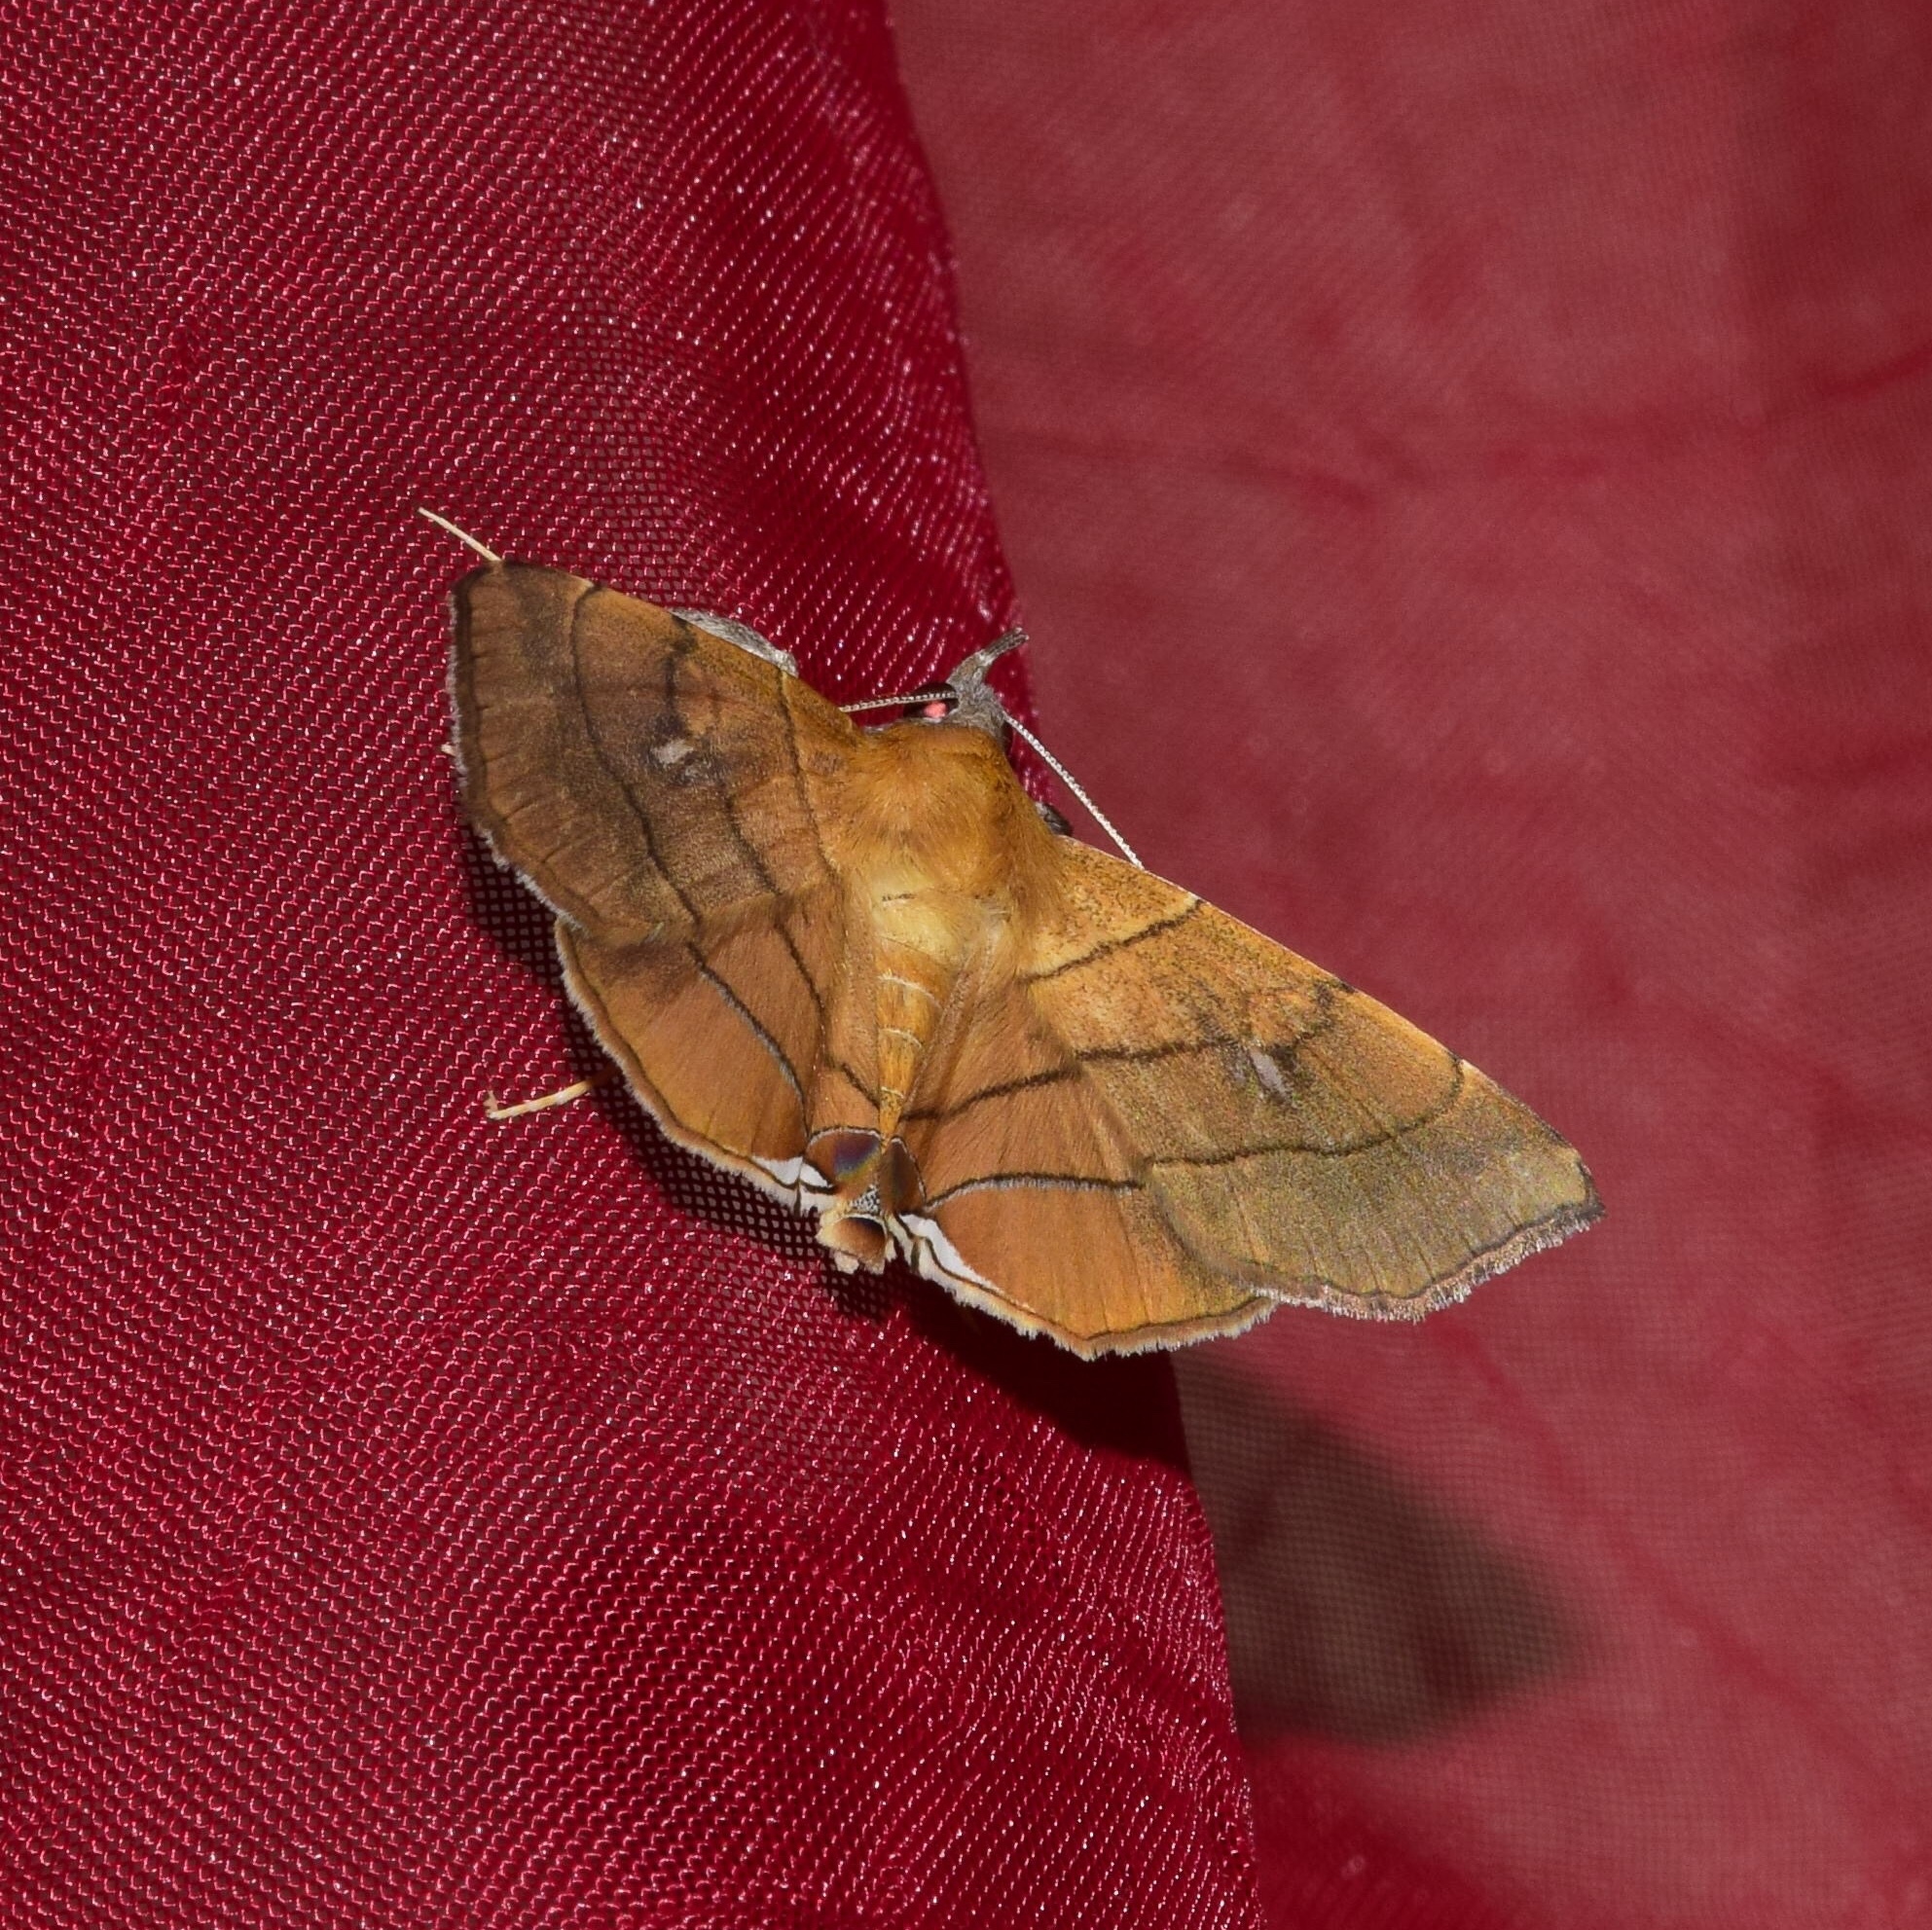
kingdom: Animalia
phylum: Arthropoda
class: Insecta
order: Lepidoptera
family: Erebidae
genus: Gracilodes
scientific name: Gracilodes caffra
